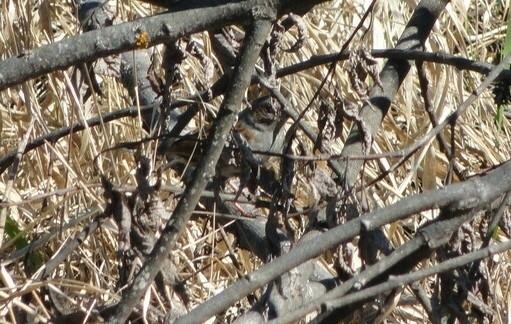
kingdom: Animalia
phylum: Chordata
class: Aves
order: Passeriformes
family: Prunellidae
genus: Prunella
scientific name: Prunella modularis
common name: Dunnock
